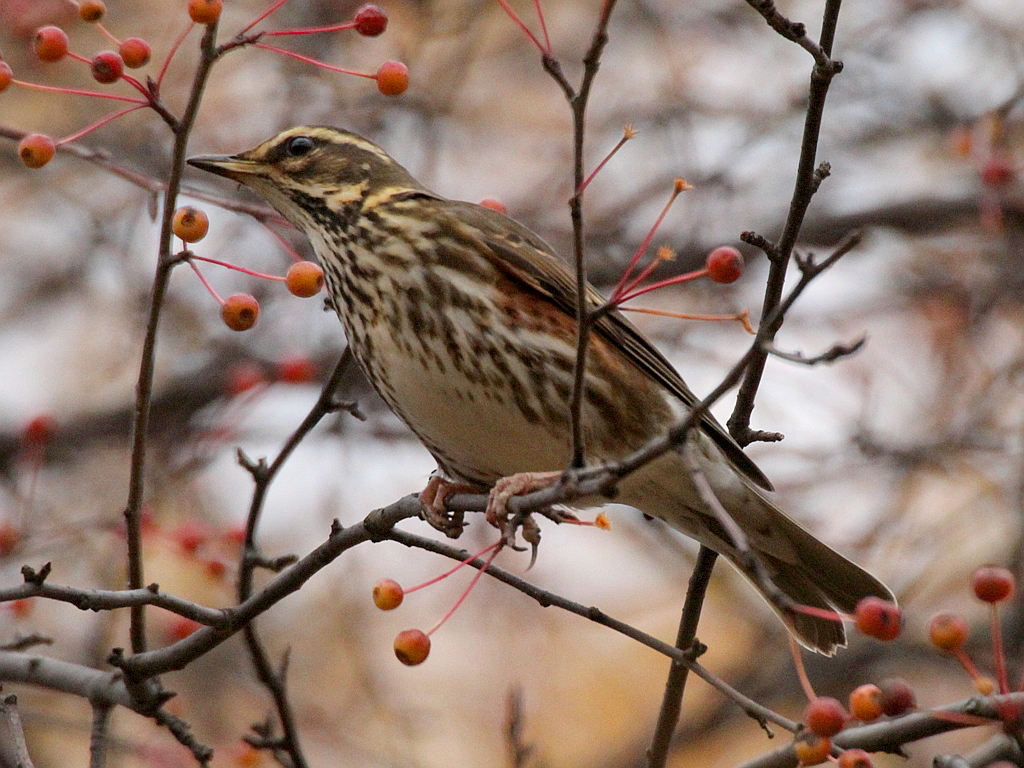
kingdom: Animalia
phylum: Chordata
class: Aves
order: Passeriformes
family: Turdidae
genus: Turdus
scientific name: Turdus iliacus
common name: Redwing
